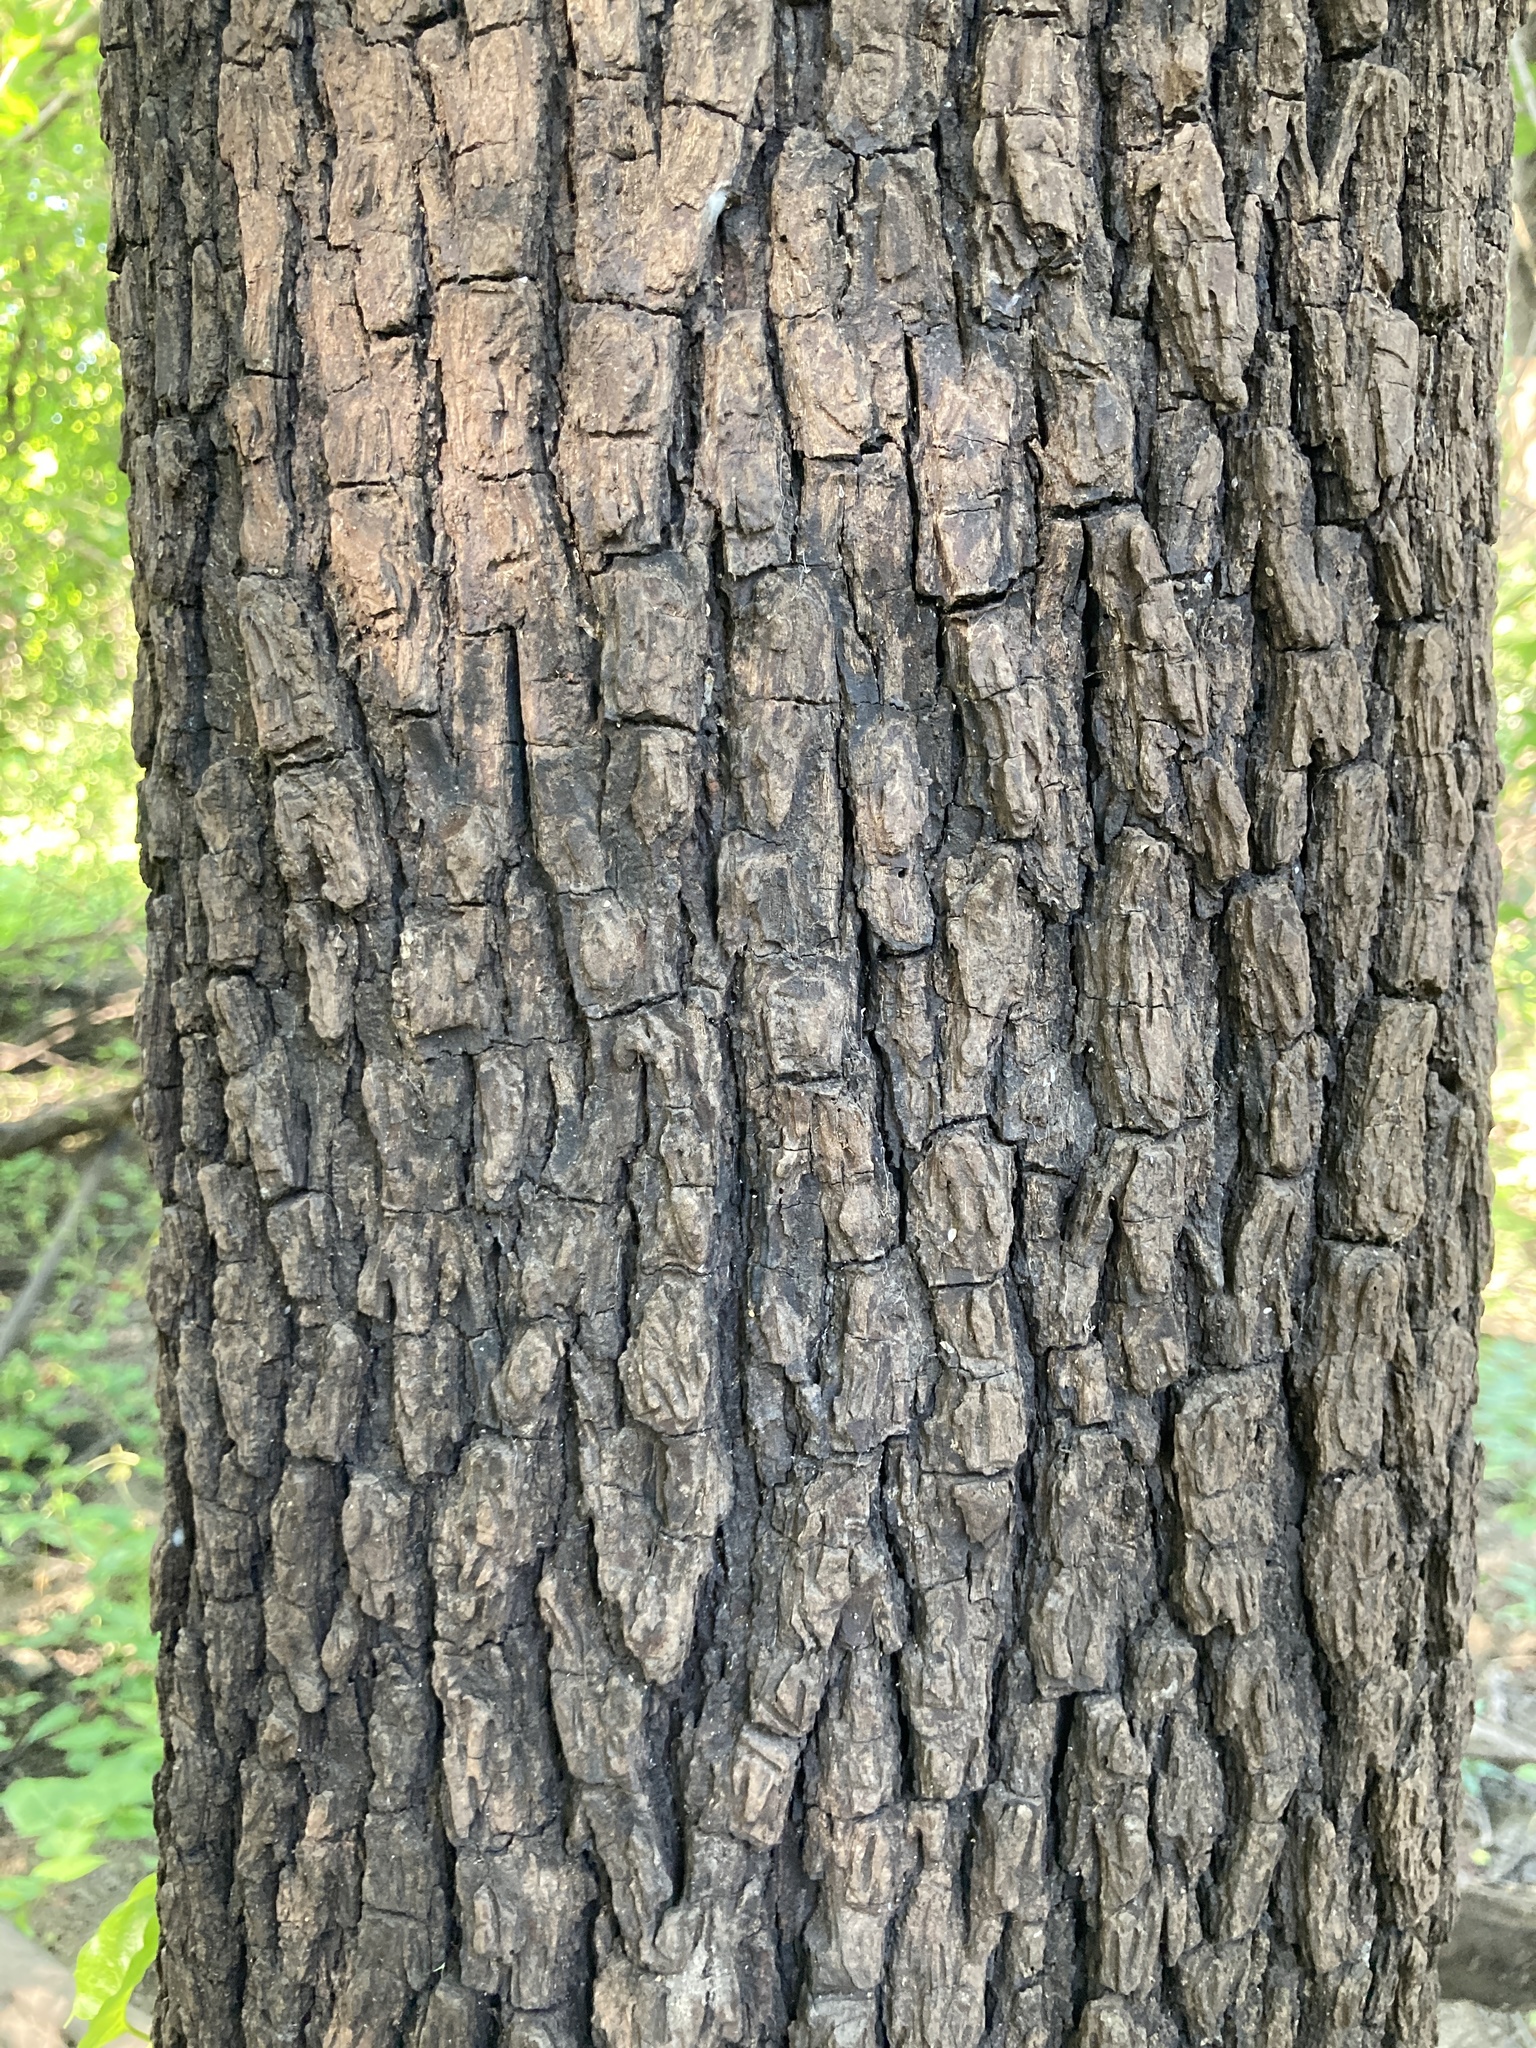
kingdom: Plantae
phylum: Tracheophyta
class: Magnoliopsida
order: Ericales
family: Ebenaceae
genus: Diospyros
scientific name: Diospyros virginiana
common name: Persimmon
